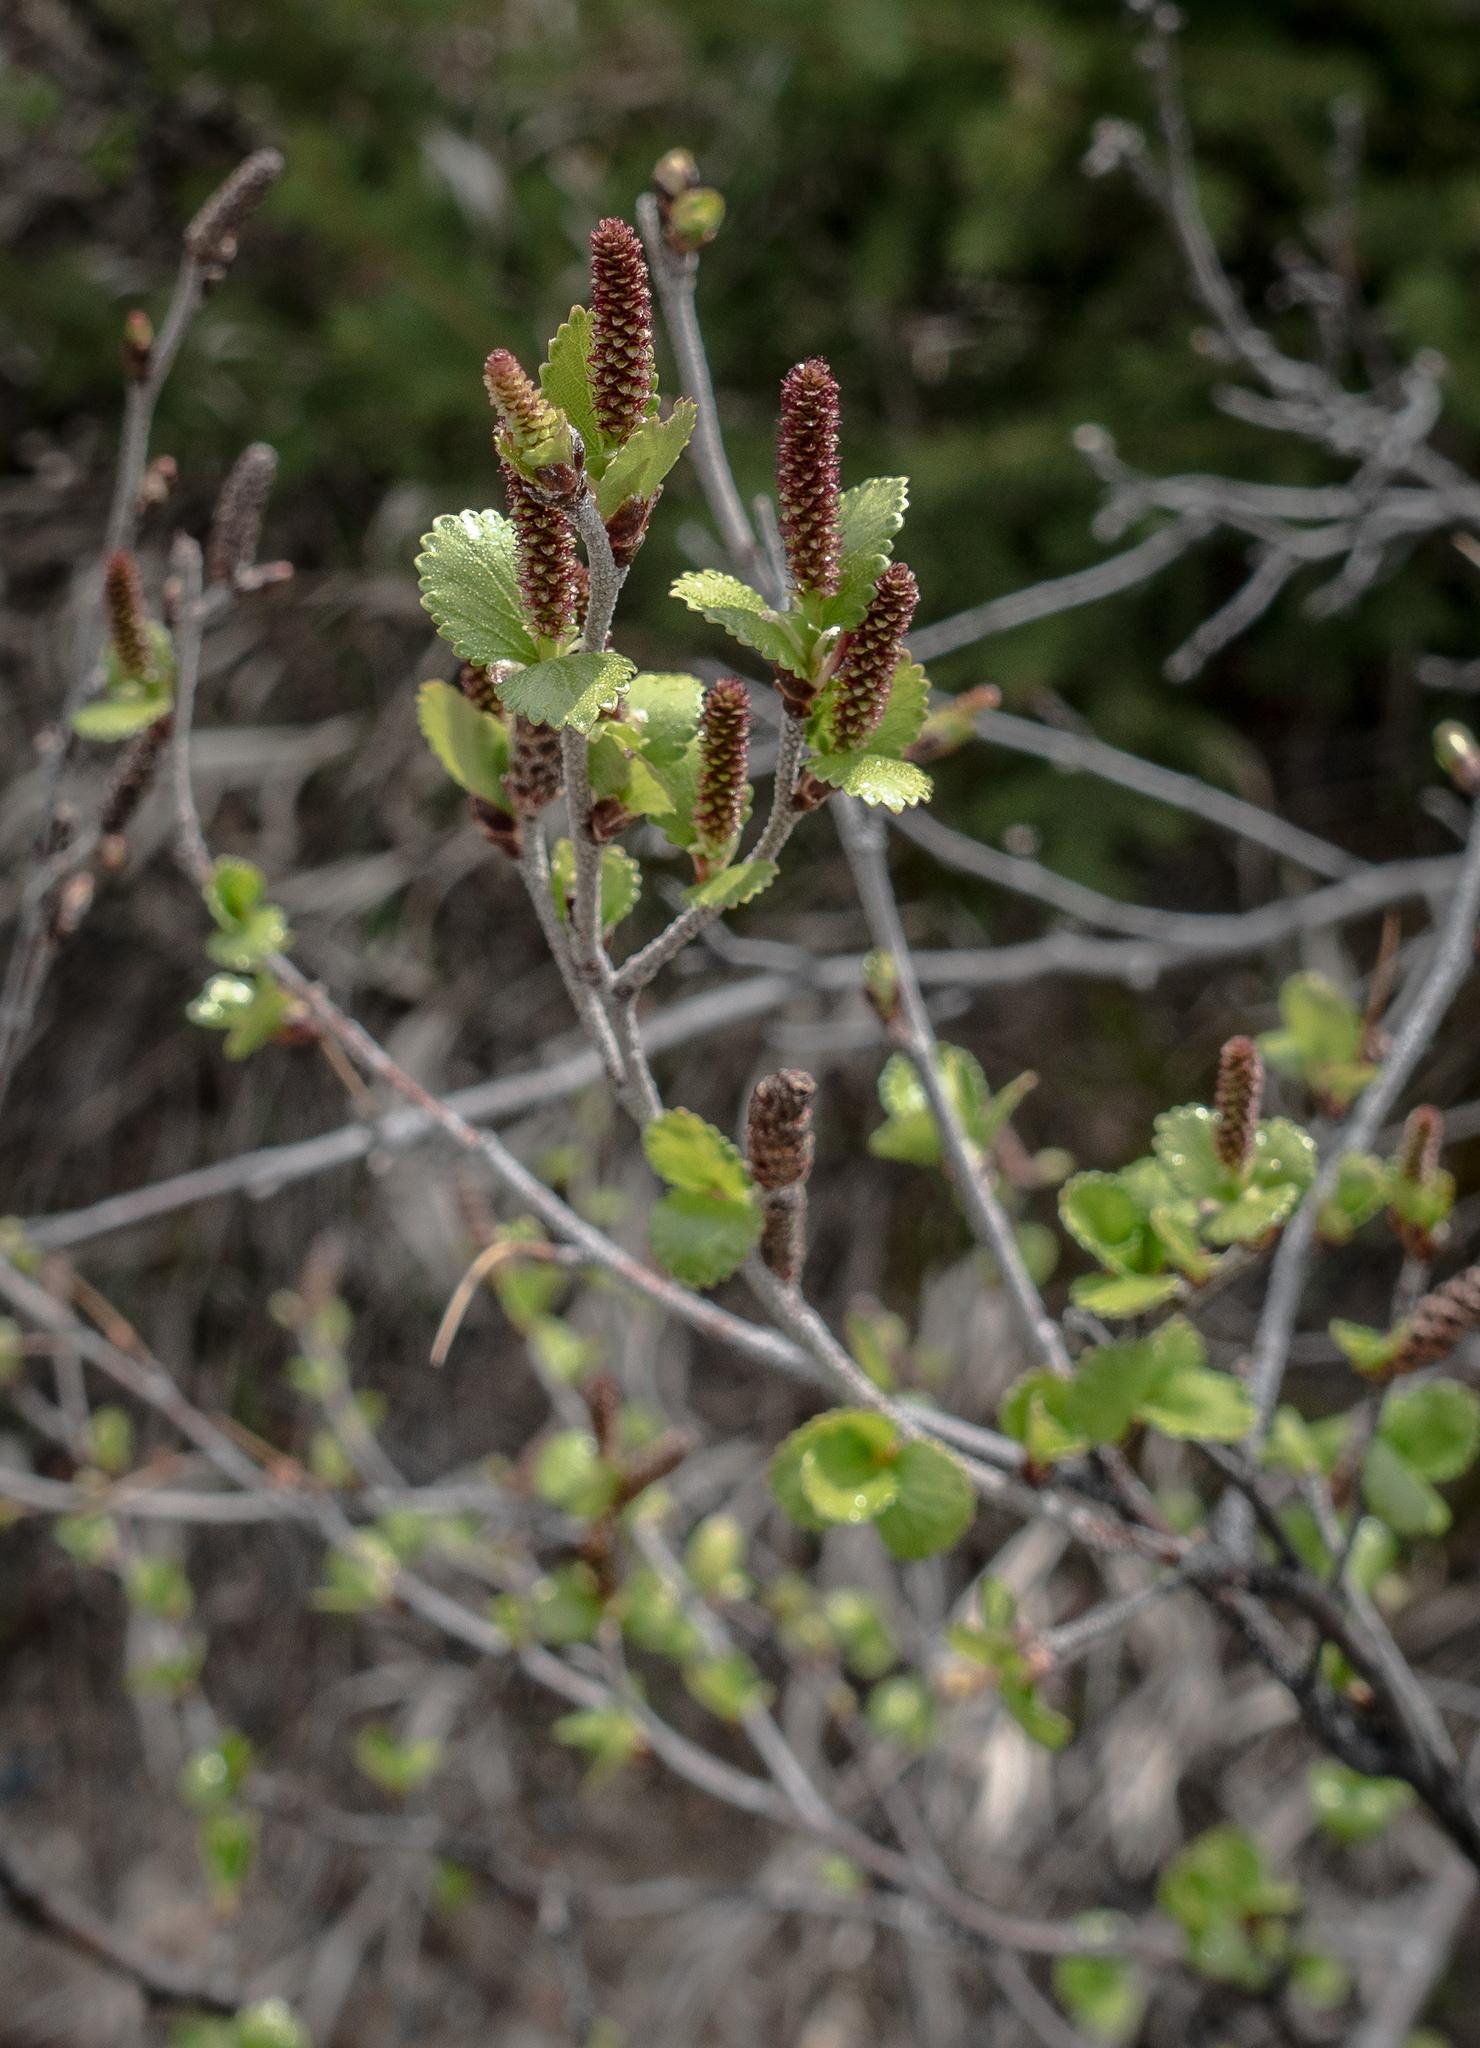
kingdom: Plantae
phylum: Tracheophyta
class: Magnoliopsida
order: Fagales
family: Betulaceae
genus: Betula
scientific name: Betula glandulosa
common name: Dwarf birch
